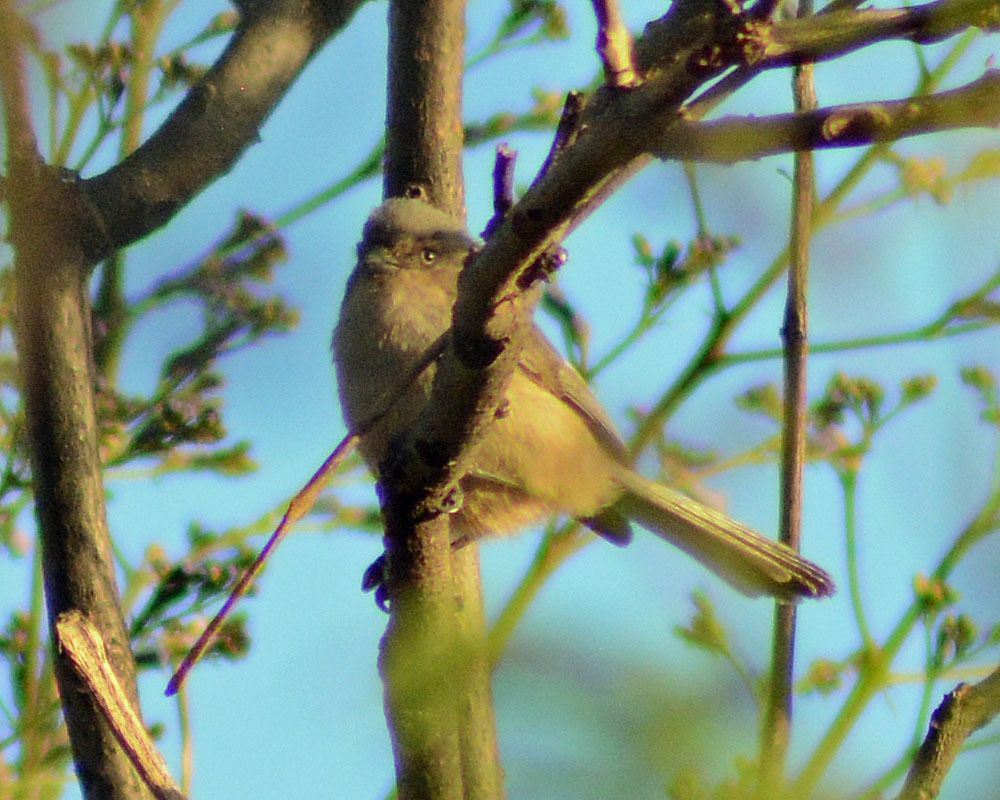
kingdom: Animalia
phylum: Chordata
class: Aves
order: Passeriformes
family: Aegithalidae
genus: Psaltriparus
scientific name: Psaltriparus minimus
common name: American bushtit
